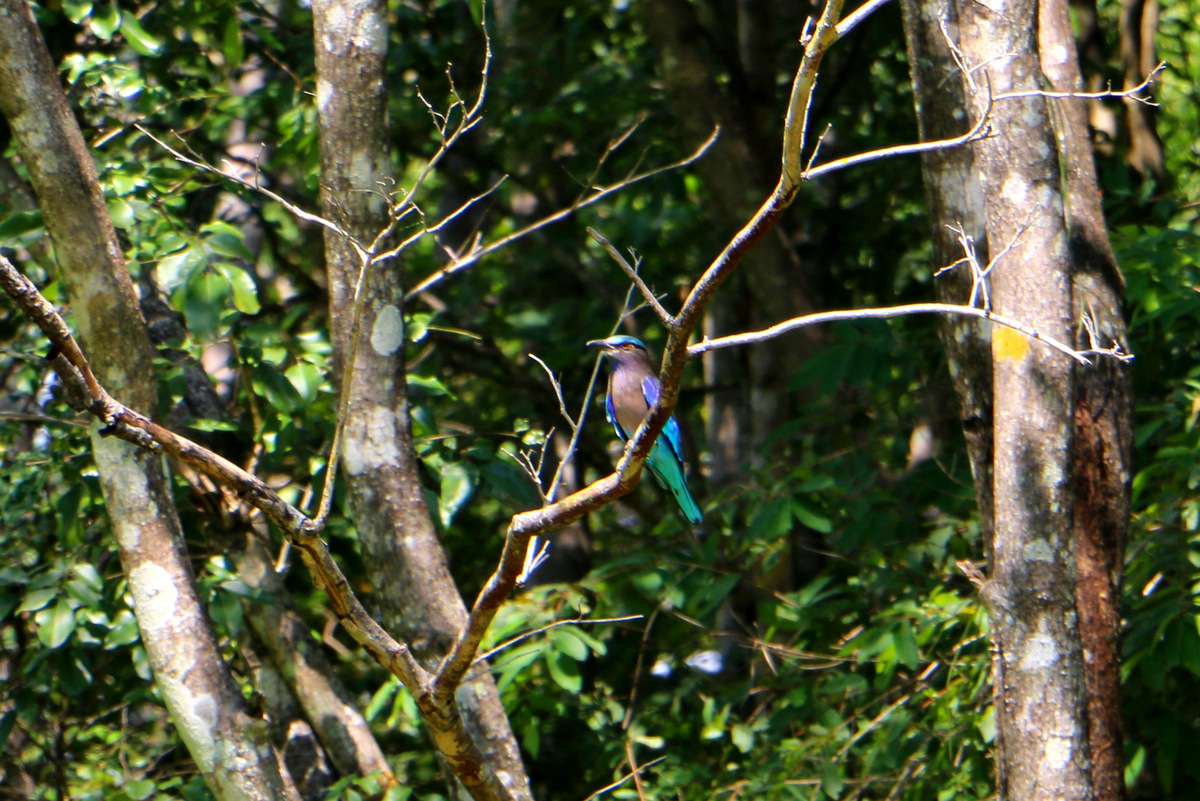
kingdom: Animalia
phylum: Chordata
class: Aves
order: Coraciiformes
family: Coraciidae
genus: Coracias
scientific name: Coracias affinis
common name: Indochinese roller
